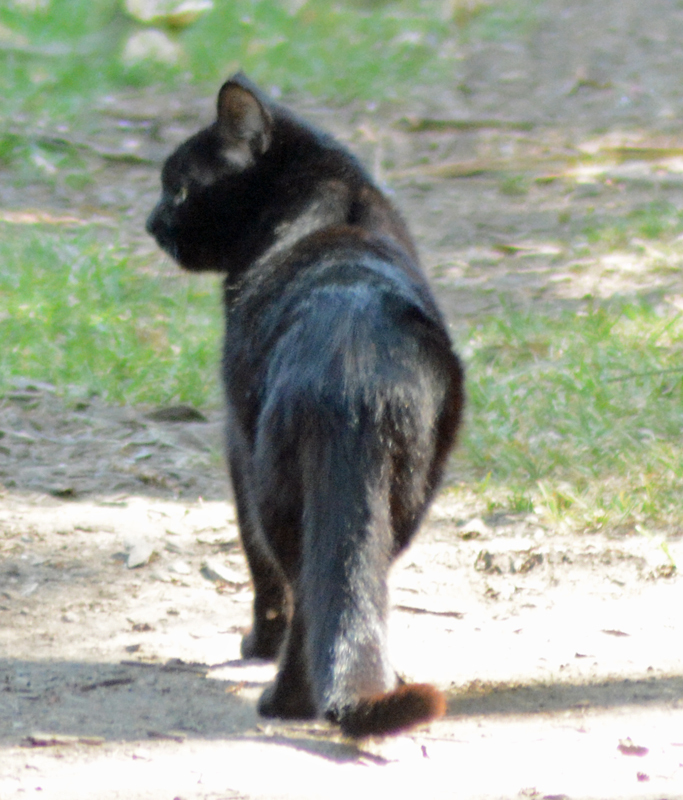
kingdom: Animalia
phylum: Chordata
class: Mammalia
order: Carnivora
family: Felidae
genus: Felis
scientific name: Felis catus
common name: Domestic cat
